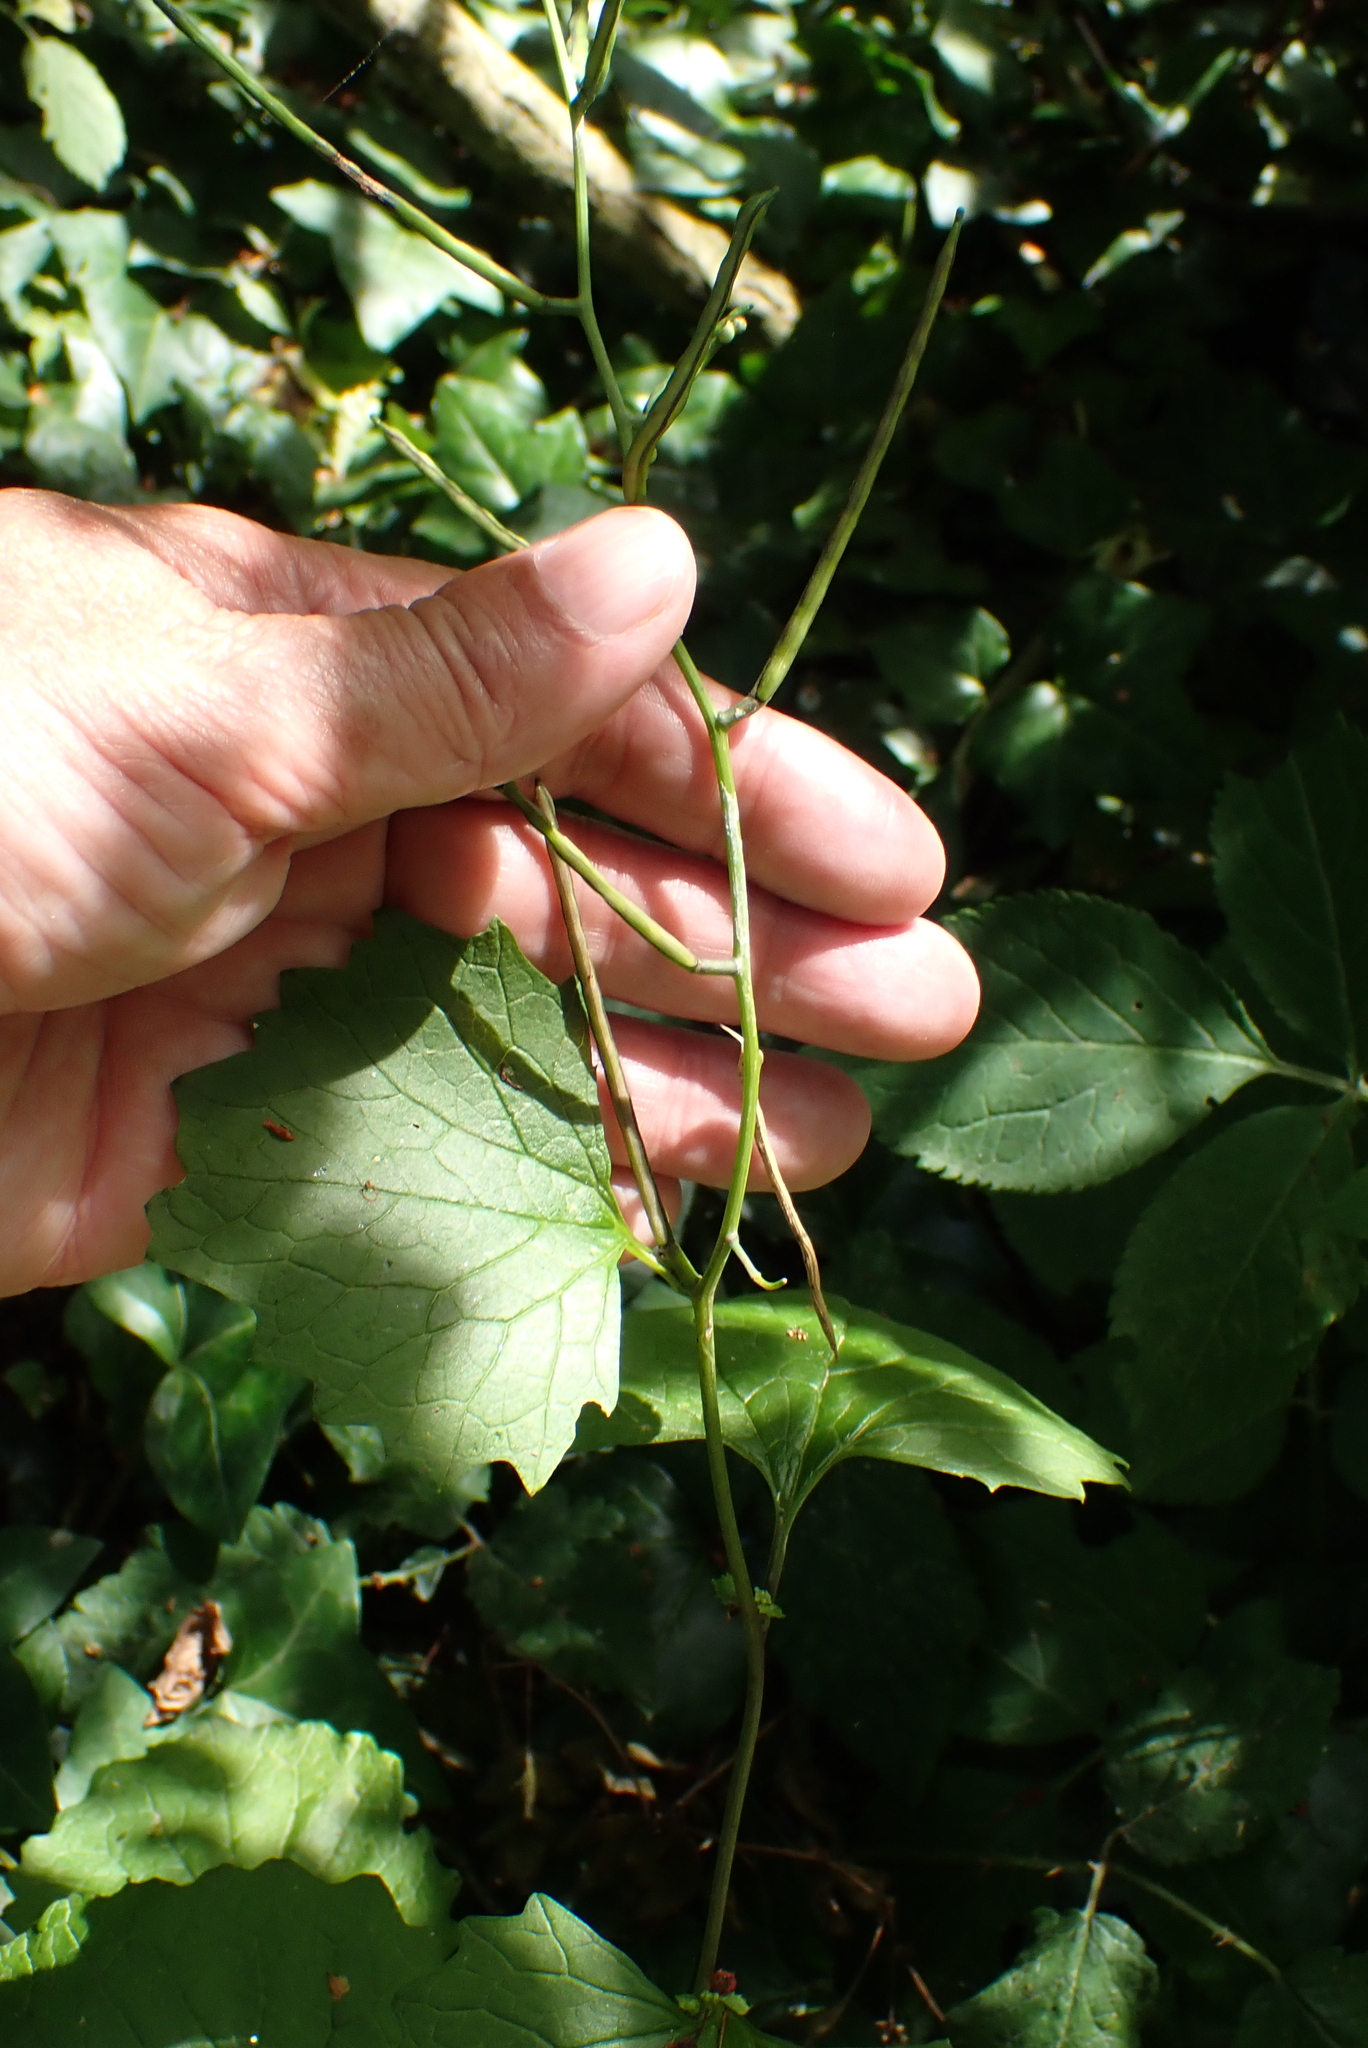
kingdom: Plantae
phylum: Tracheophyta
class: Magnoliopsida
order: Brassicales
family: Brassicaceae
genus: Alliaria
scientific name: Alliaria petiolata
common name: Garlic mustard
